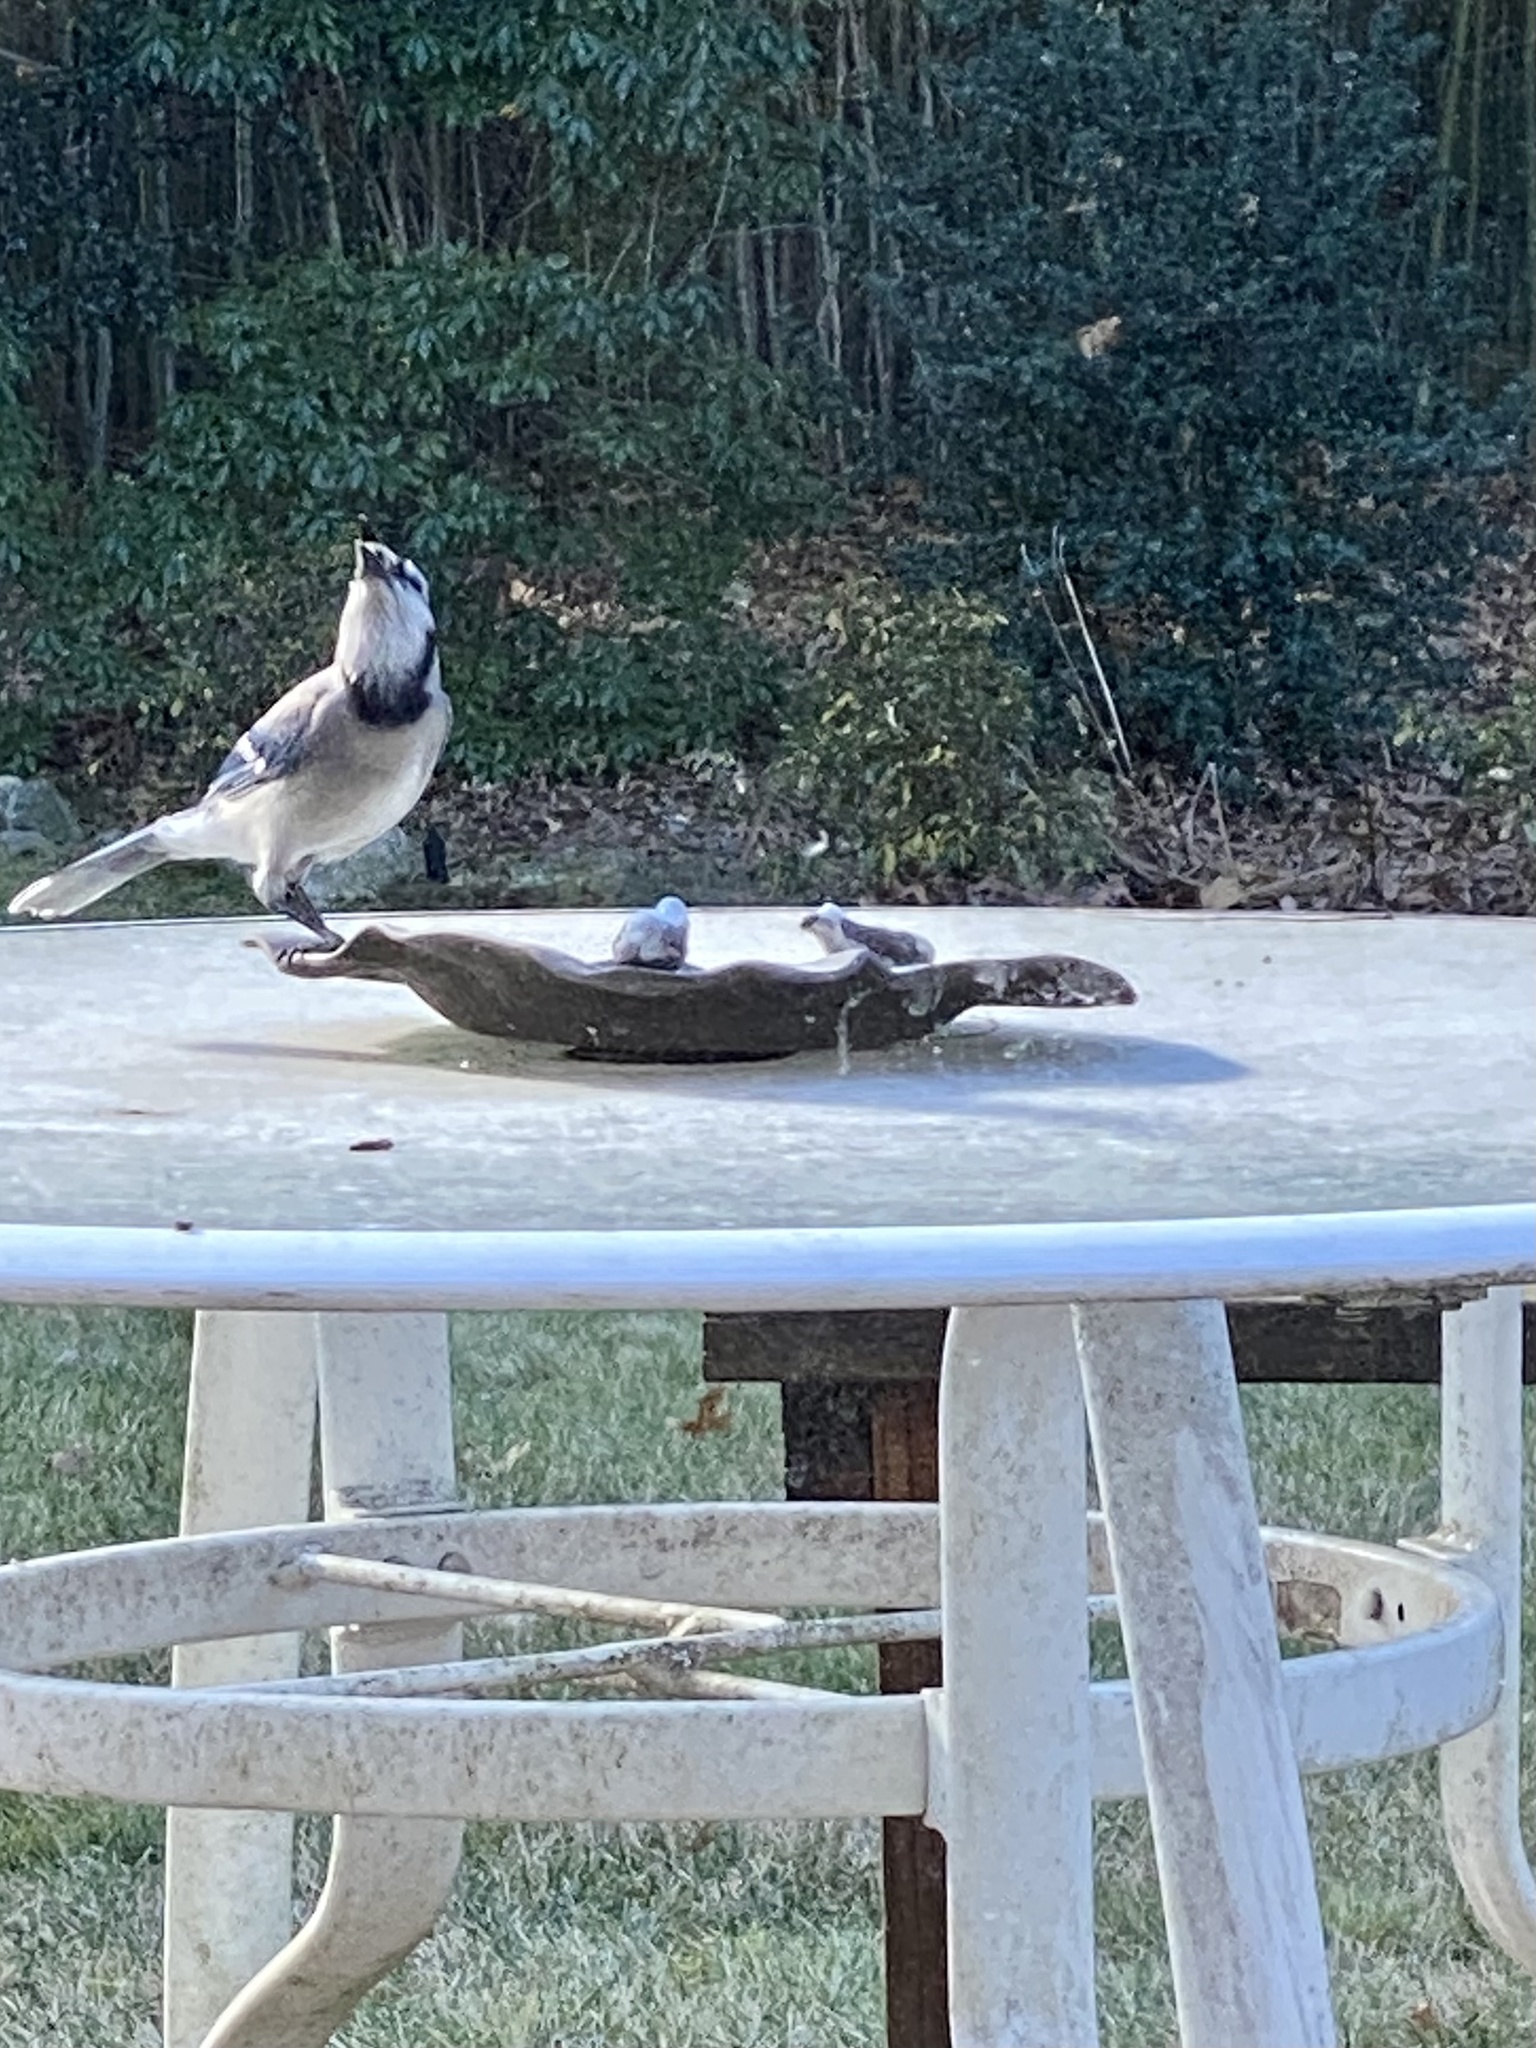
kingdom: Animalia
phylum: Chordata
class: Aves
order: Passeriformes
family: Corvidae
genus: Cyanocitta
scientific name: Cyanocitta cristata
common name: Blue jay
